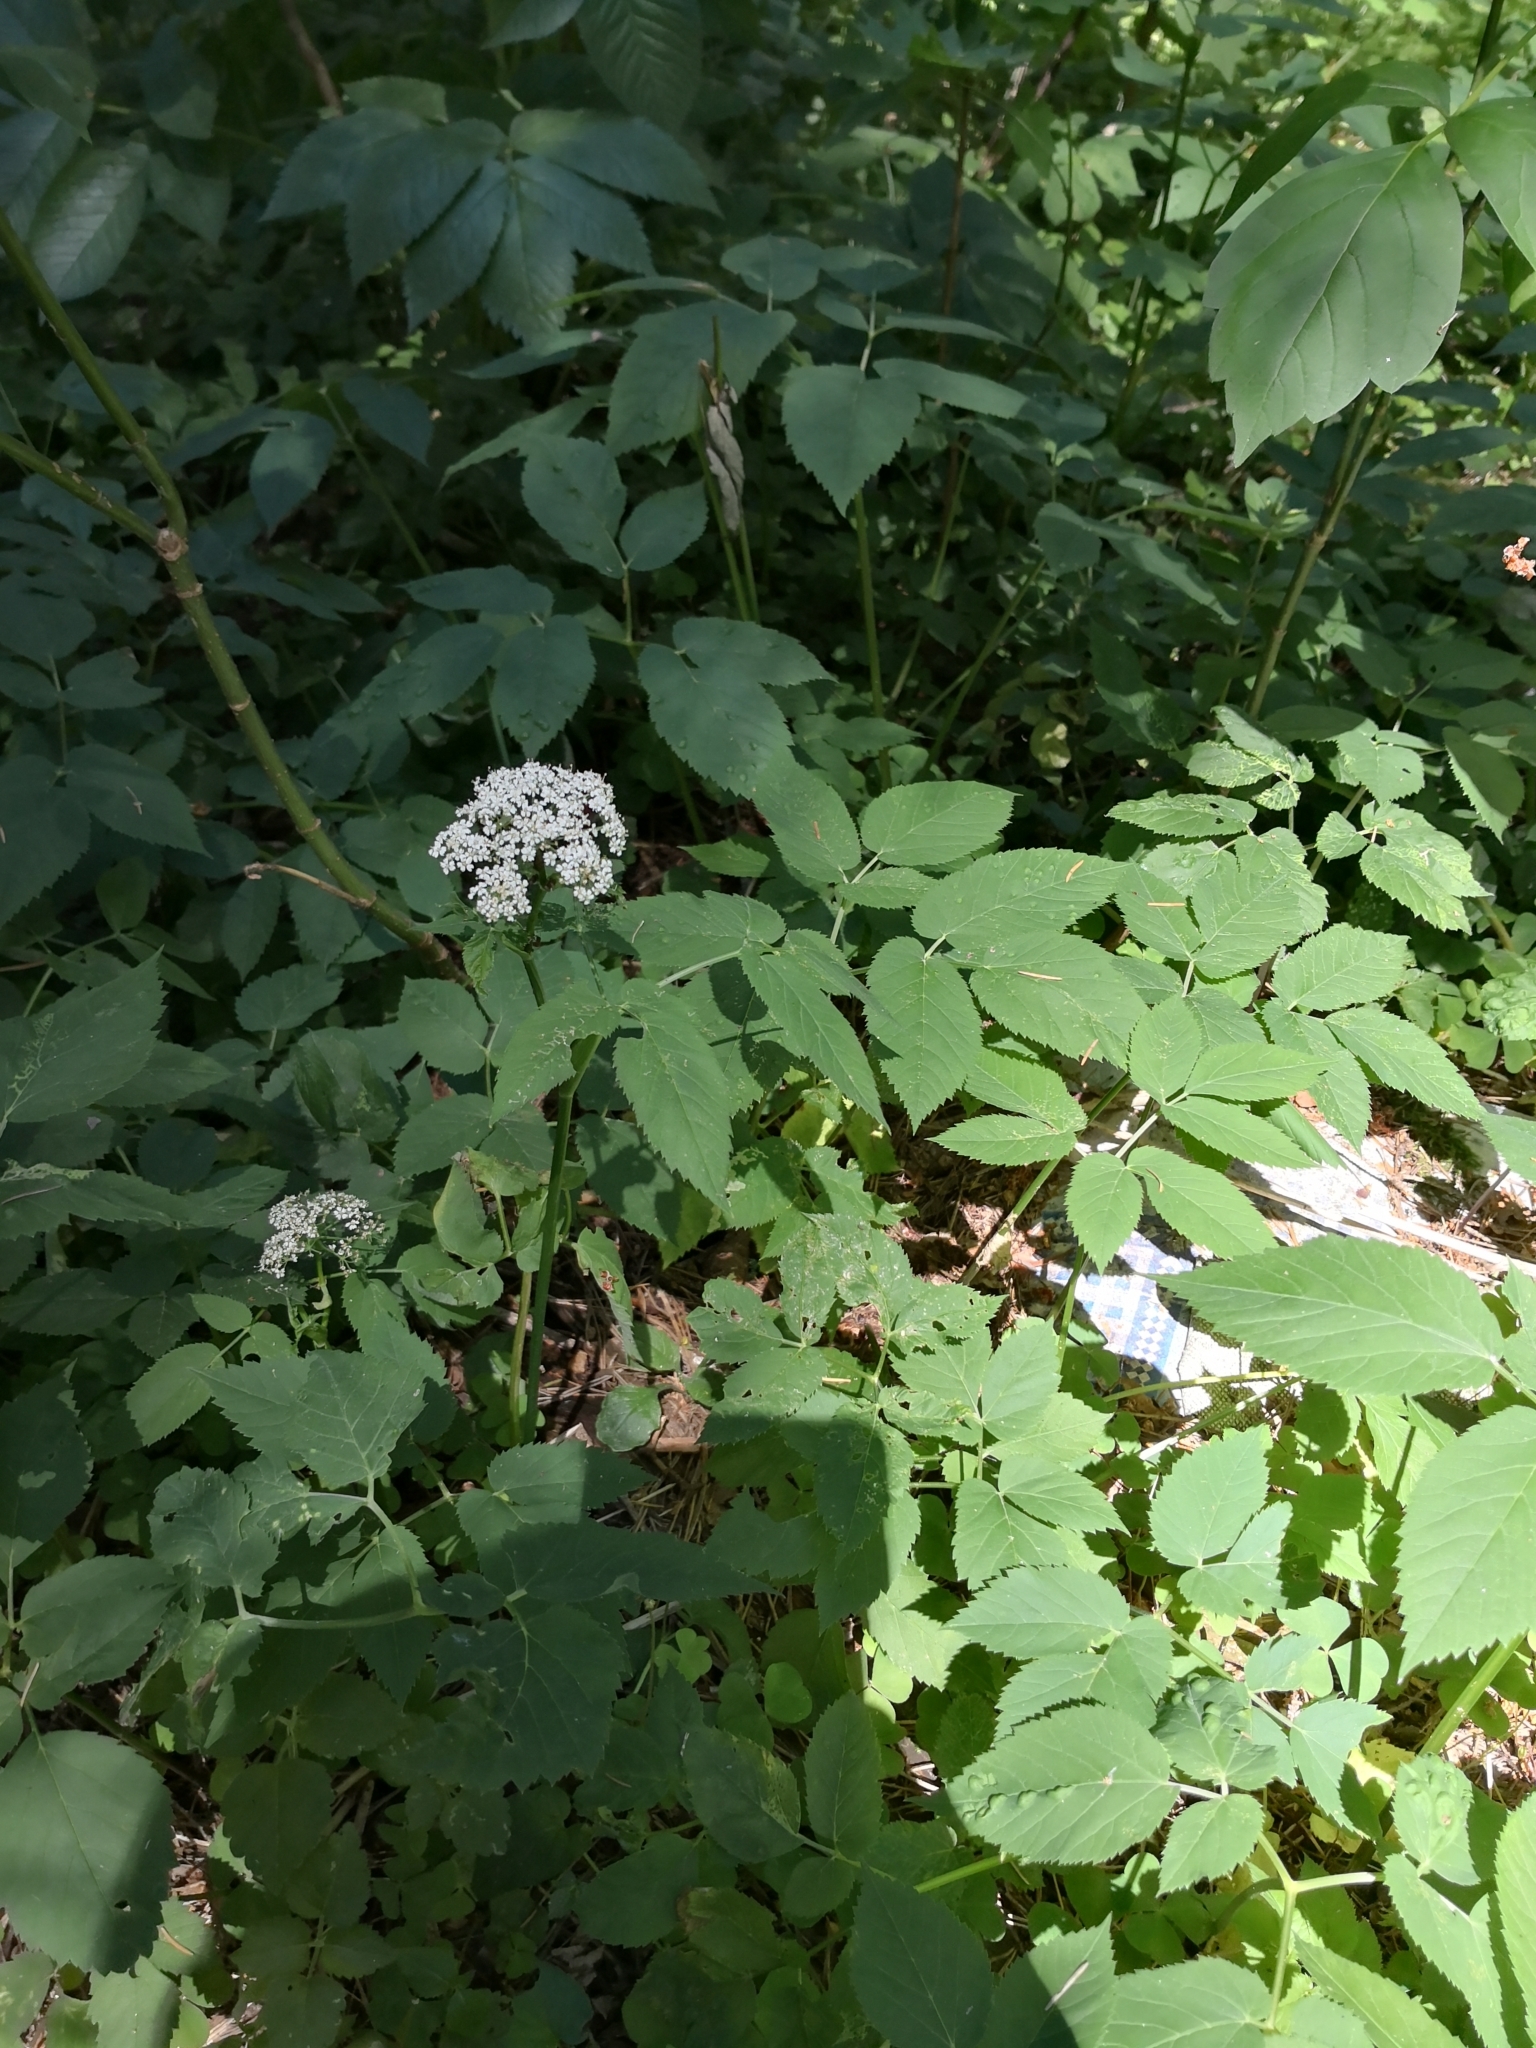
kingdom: Plantae
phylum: Tracheophyta
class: Magnoliopsida
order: Apiales
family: Apiaceae
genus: Aegopodium
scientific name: Aegopodium podagraria
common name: Ground-elder
